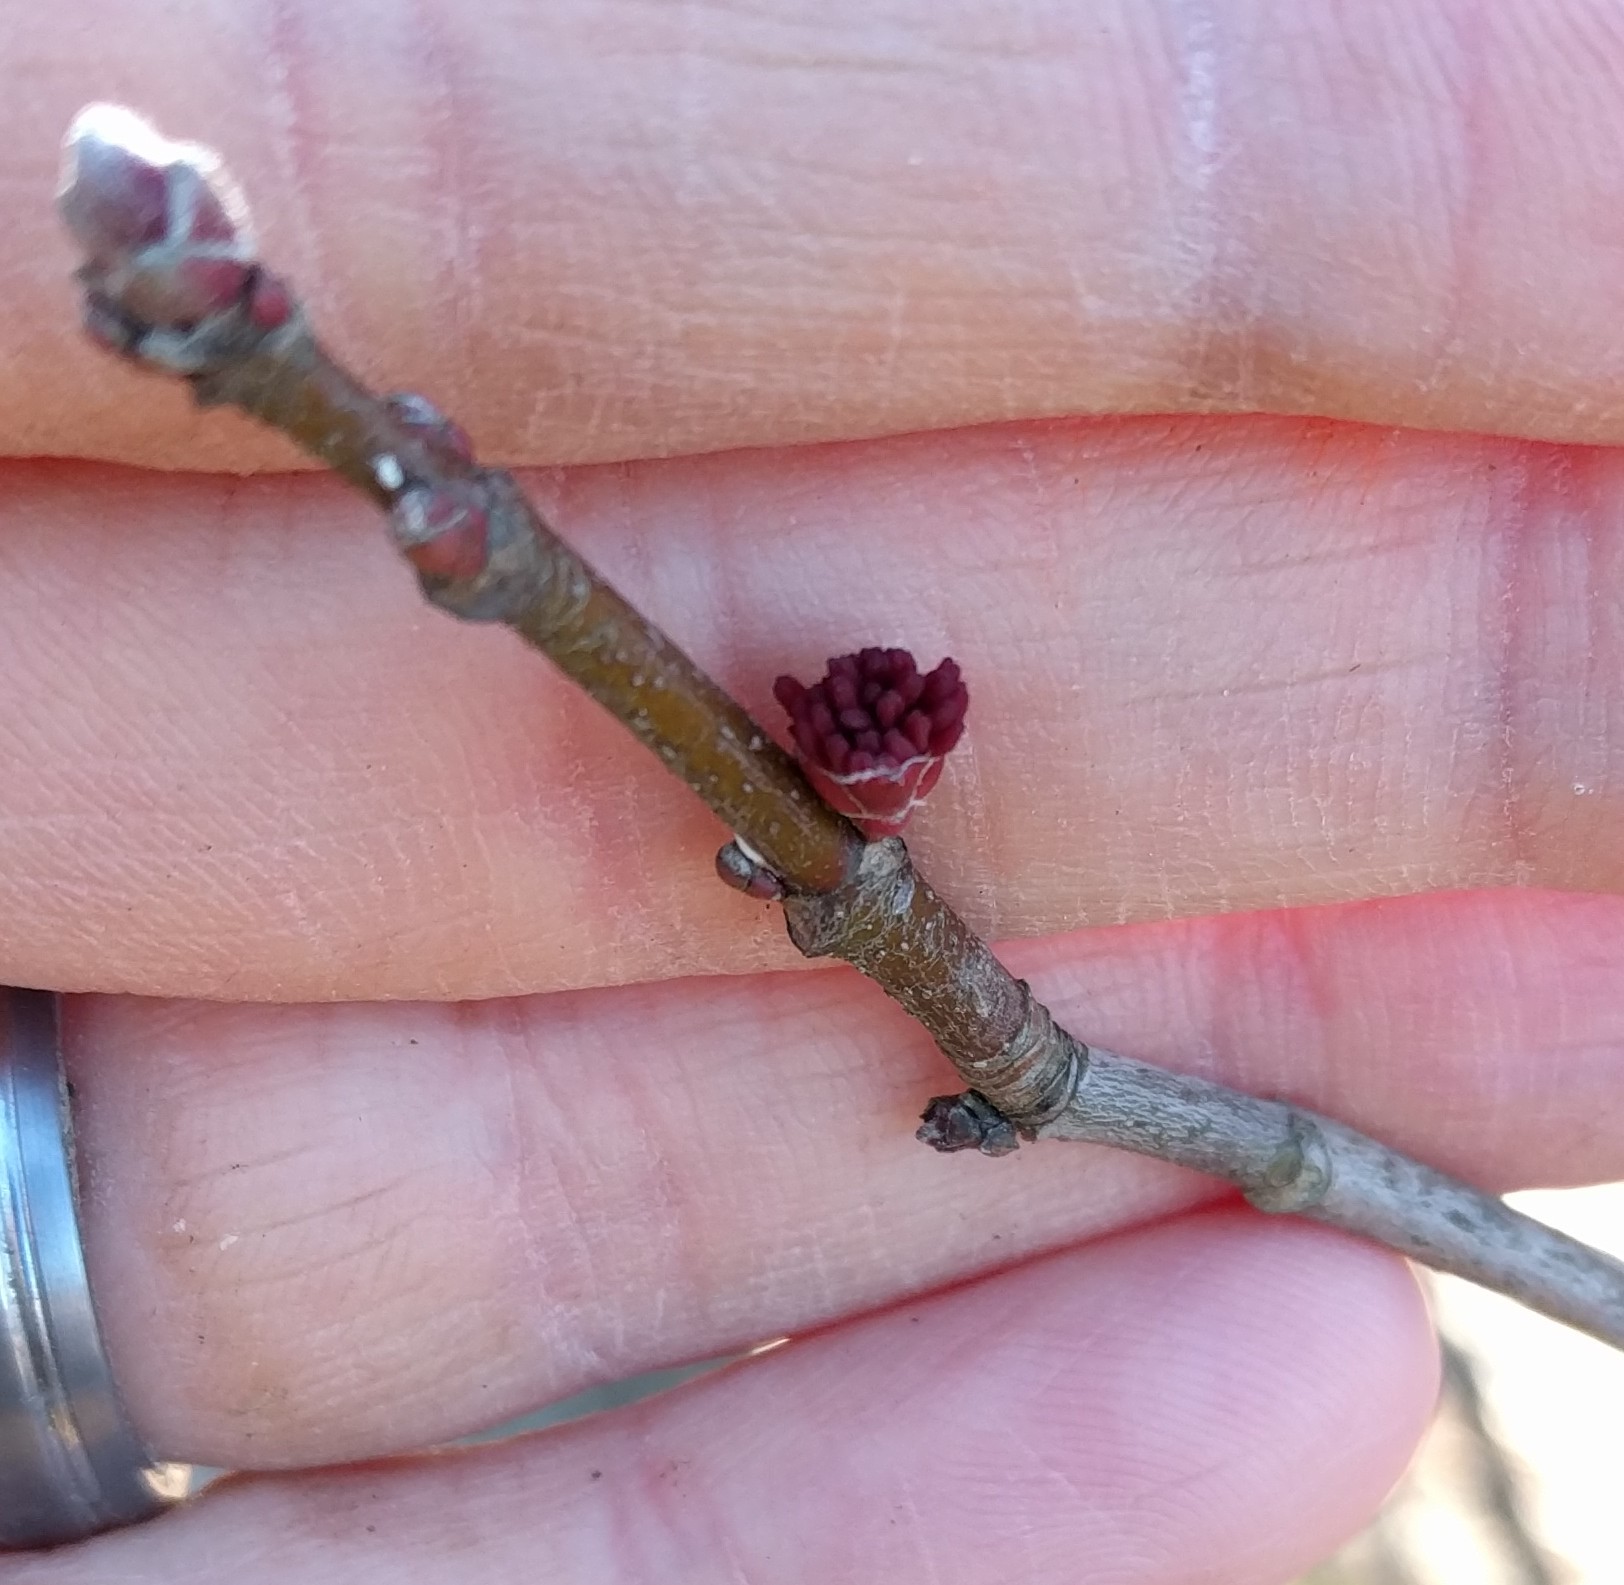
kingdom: Plantae
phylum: Tracheophyta
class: Magnoliopsida
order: Sapindales
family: Sapindaceae
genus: Acer
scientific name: Acer rubrum
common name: Red maple
